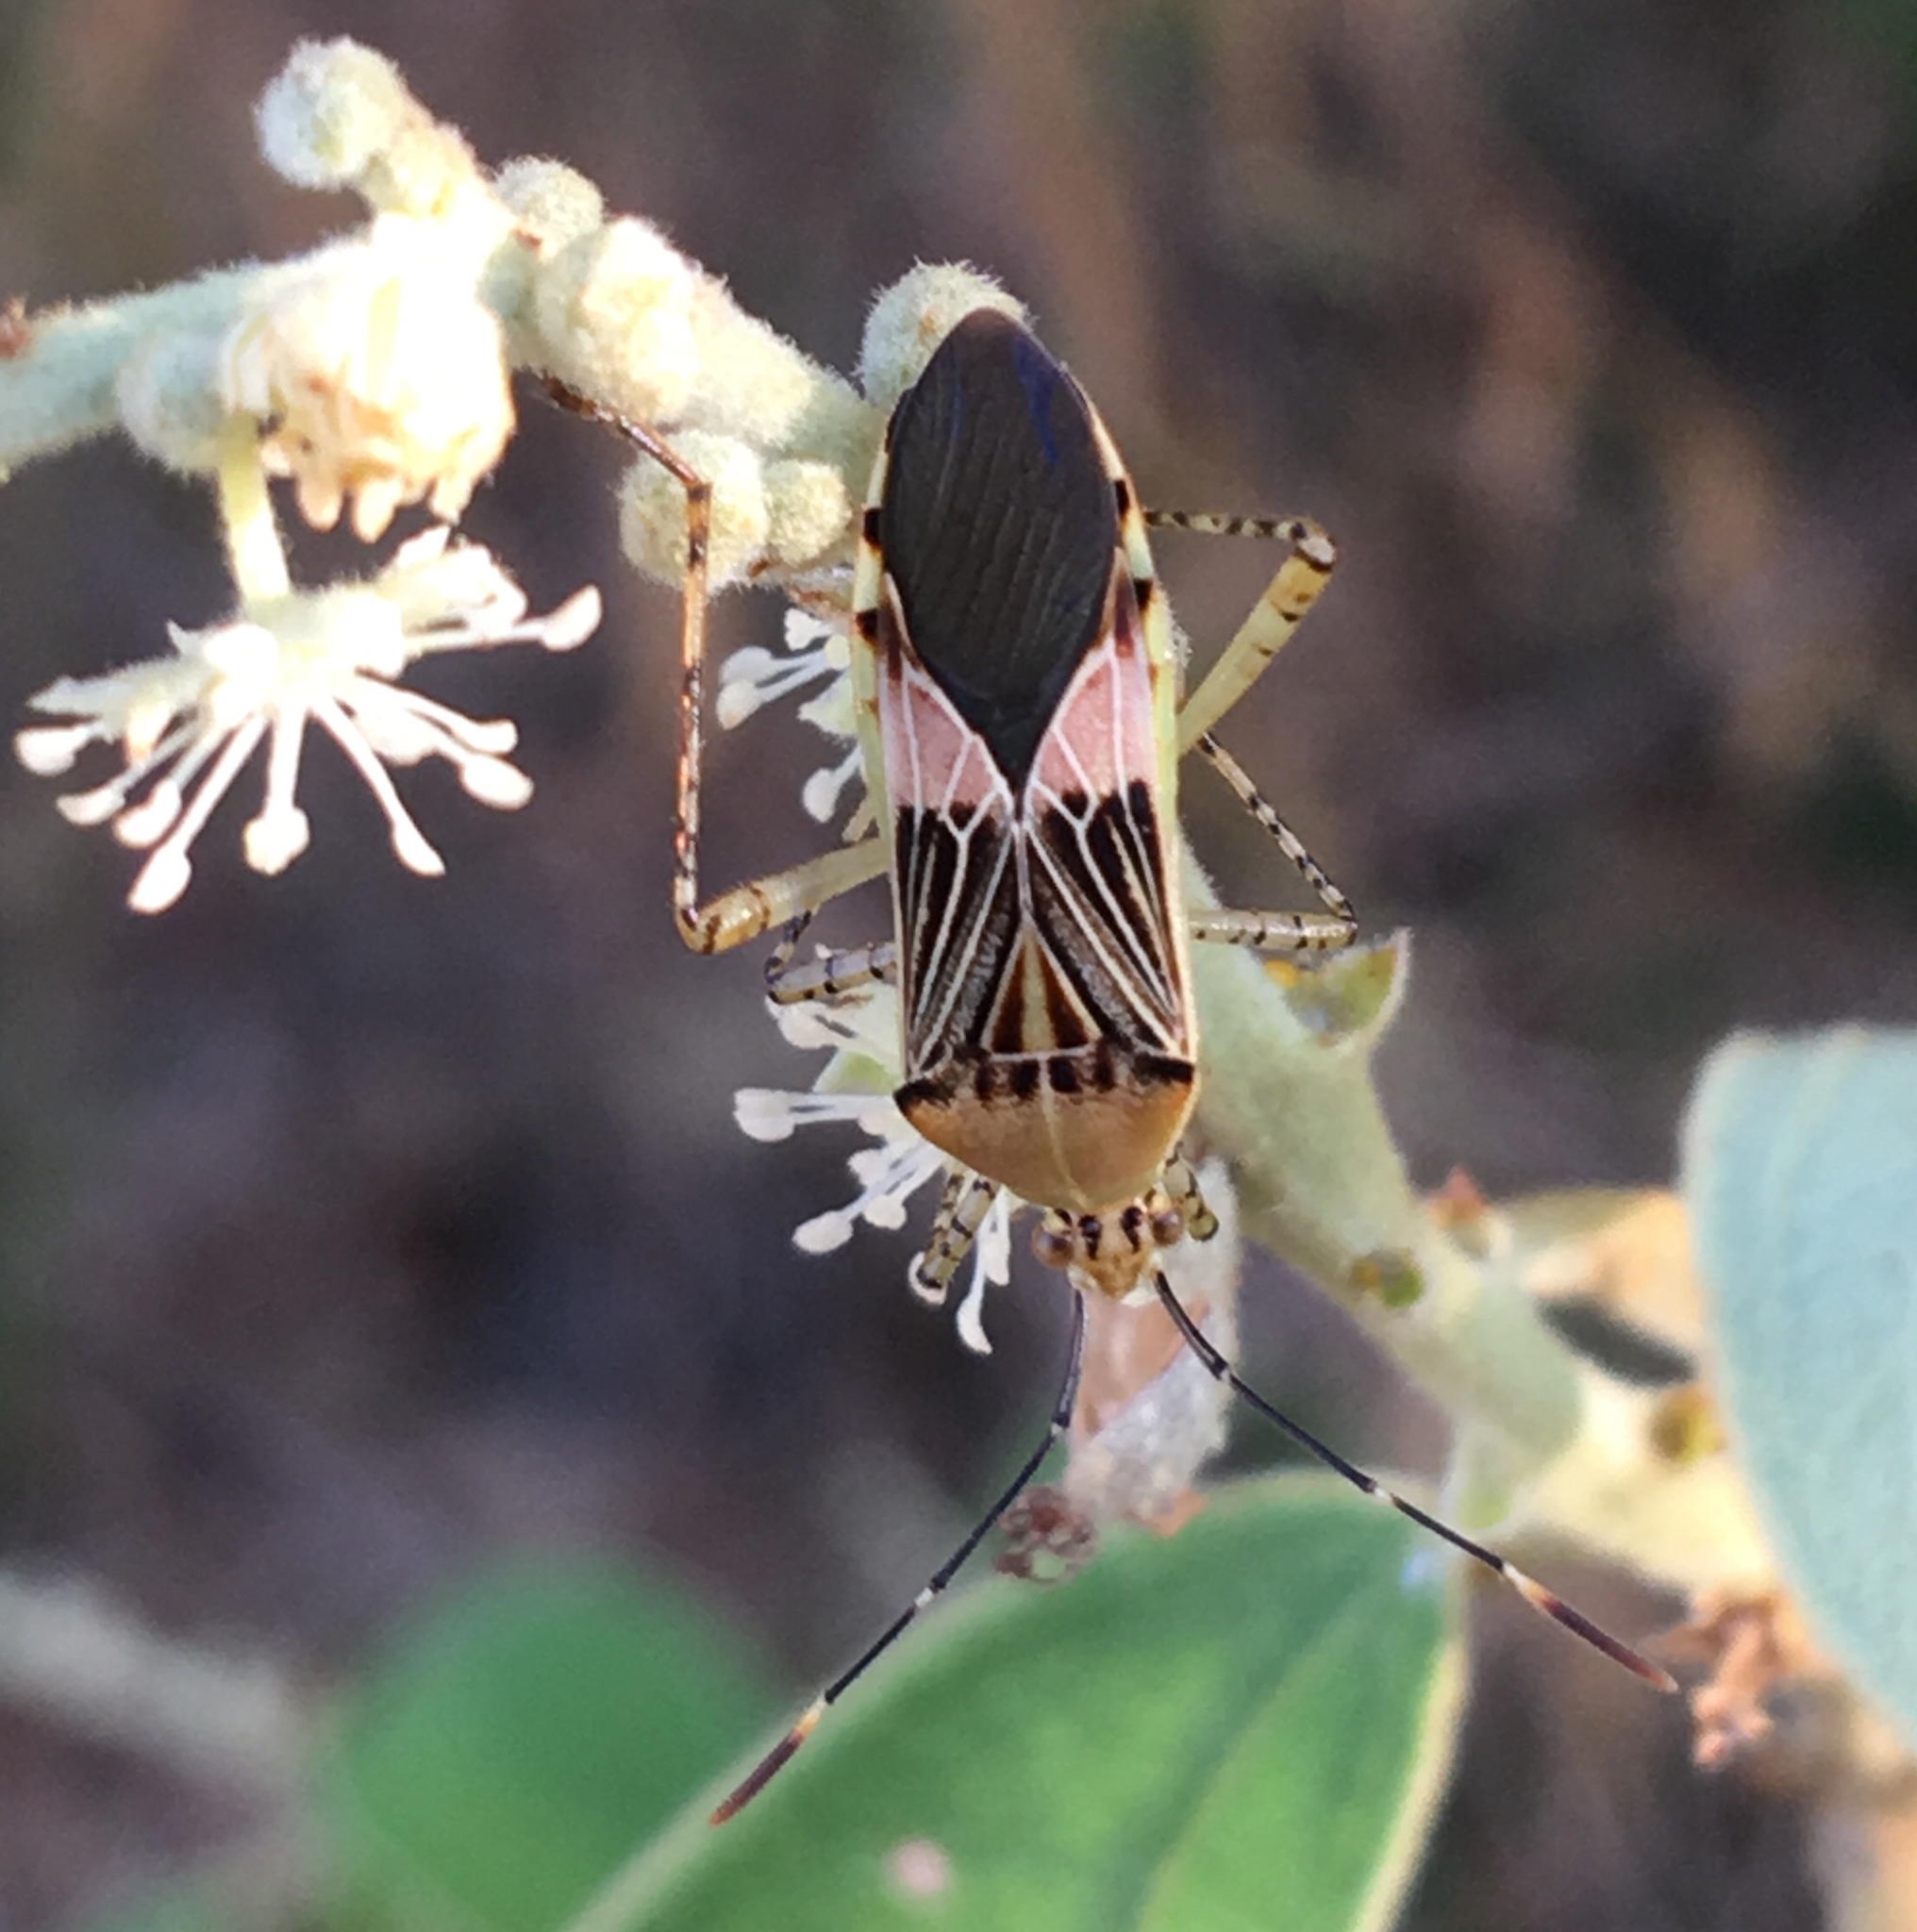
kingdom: Animalia
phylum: Arthropoda
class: Insecta
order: Hemiptera
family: Coreidae
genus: Hypselonotus
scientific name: Hypselonotus fulvus
